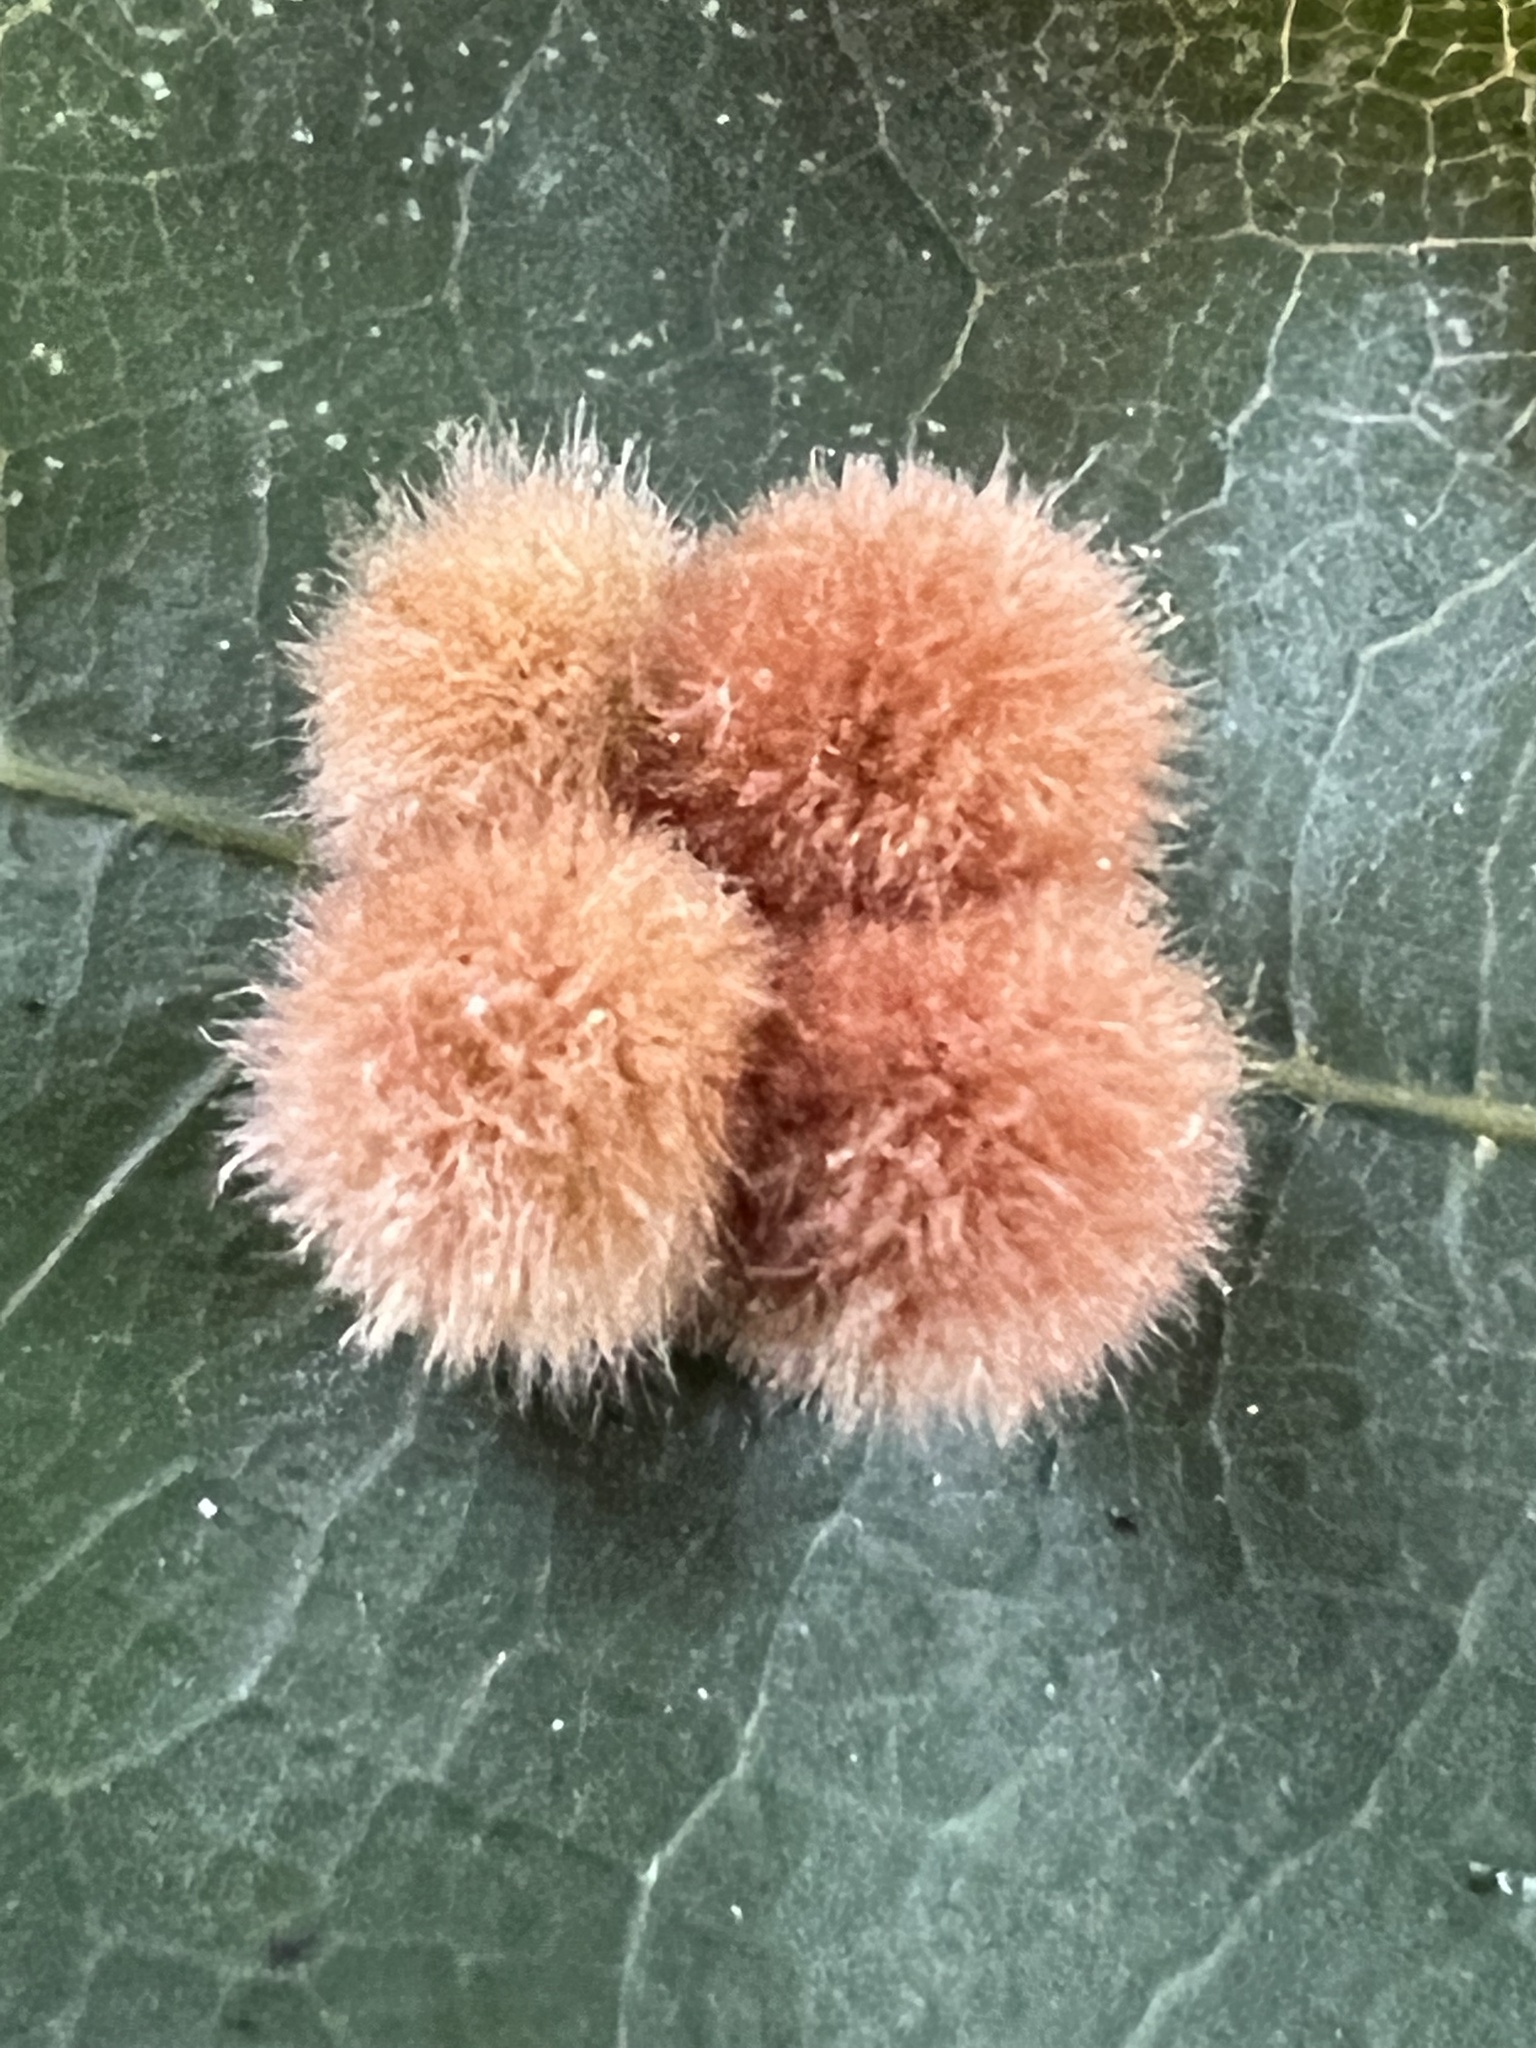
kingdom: Animalia
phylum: Arthropoda
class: Insecta
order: Hymenoptera
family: Cynipidae
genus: Callirhytis
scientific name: Callirhytis
